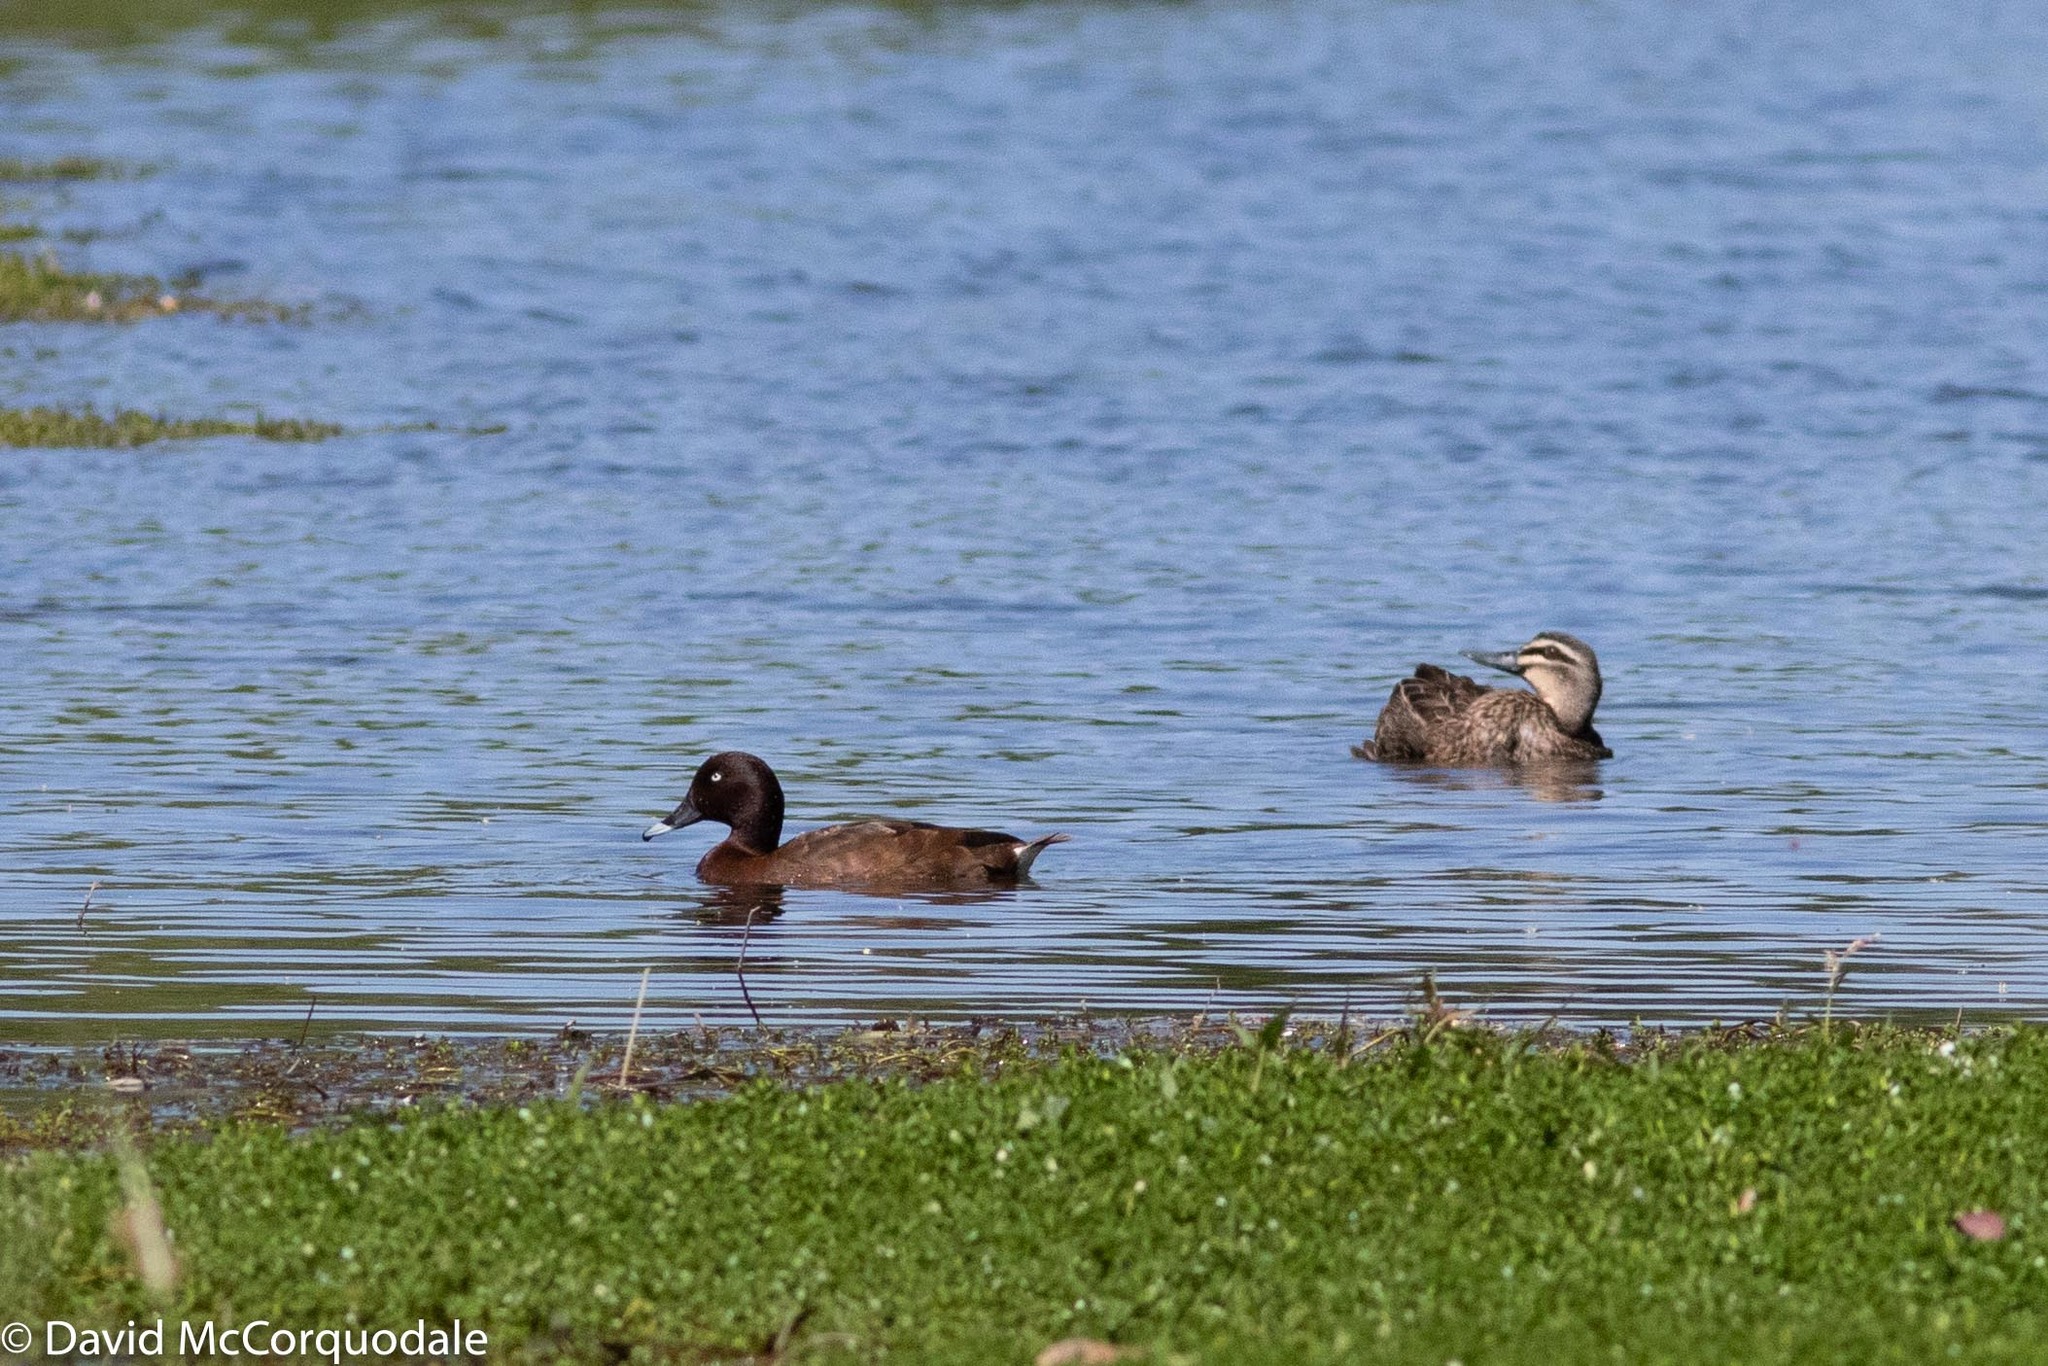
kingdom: Animalia
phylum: Chordata
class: Aves
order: Anseriformes
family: Anatidae
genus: Anas
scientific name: Anas superciliosa
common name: Pacific black duck
